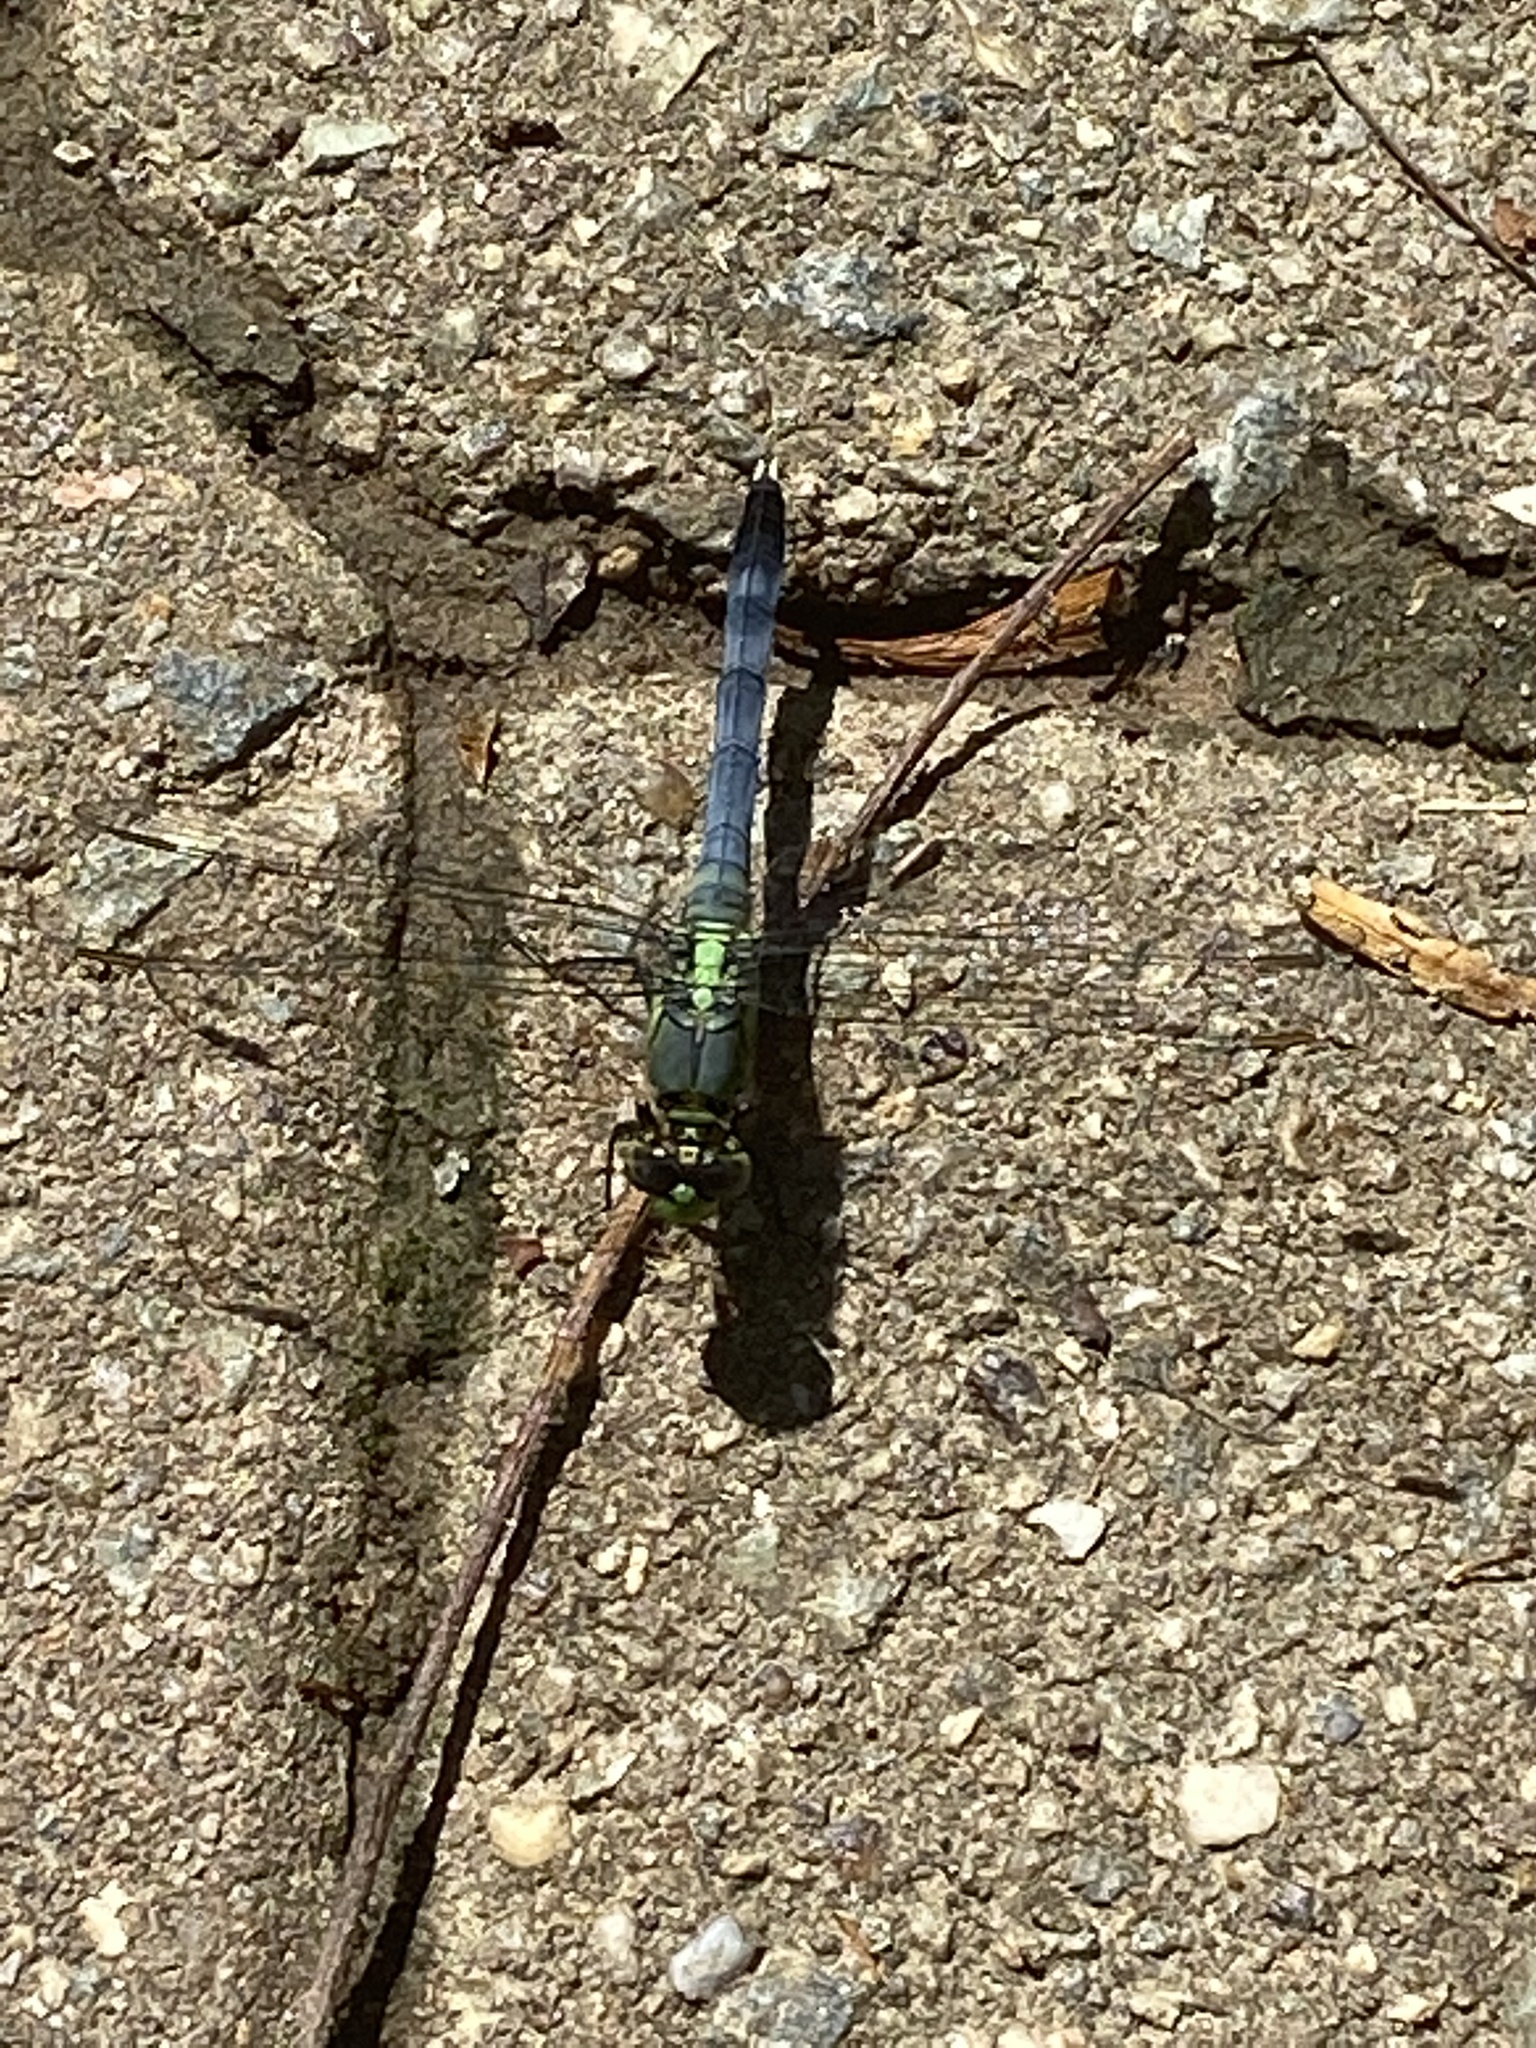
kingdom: Animalia
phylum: Arthropoda
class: Insecta
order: Odonata
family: Libellulidae
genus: Erythemis
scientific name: Erythemis simplicicollis
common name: Eastern pondhawk
